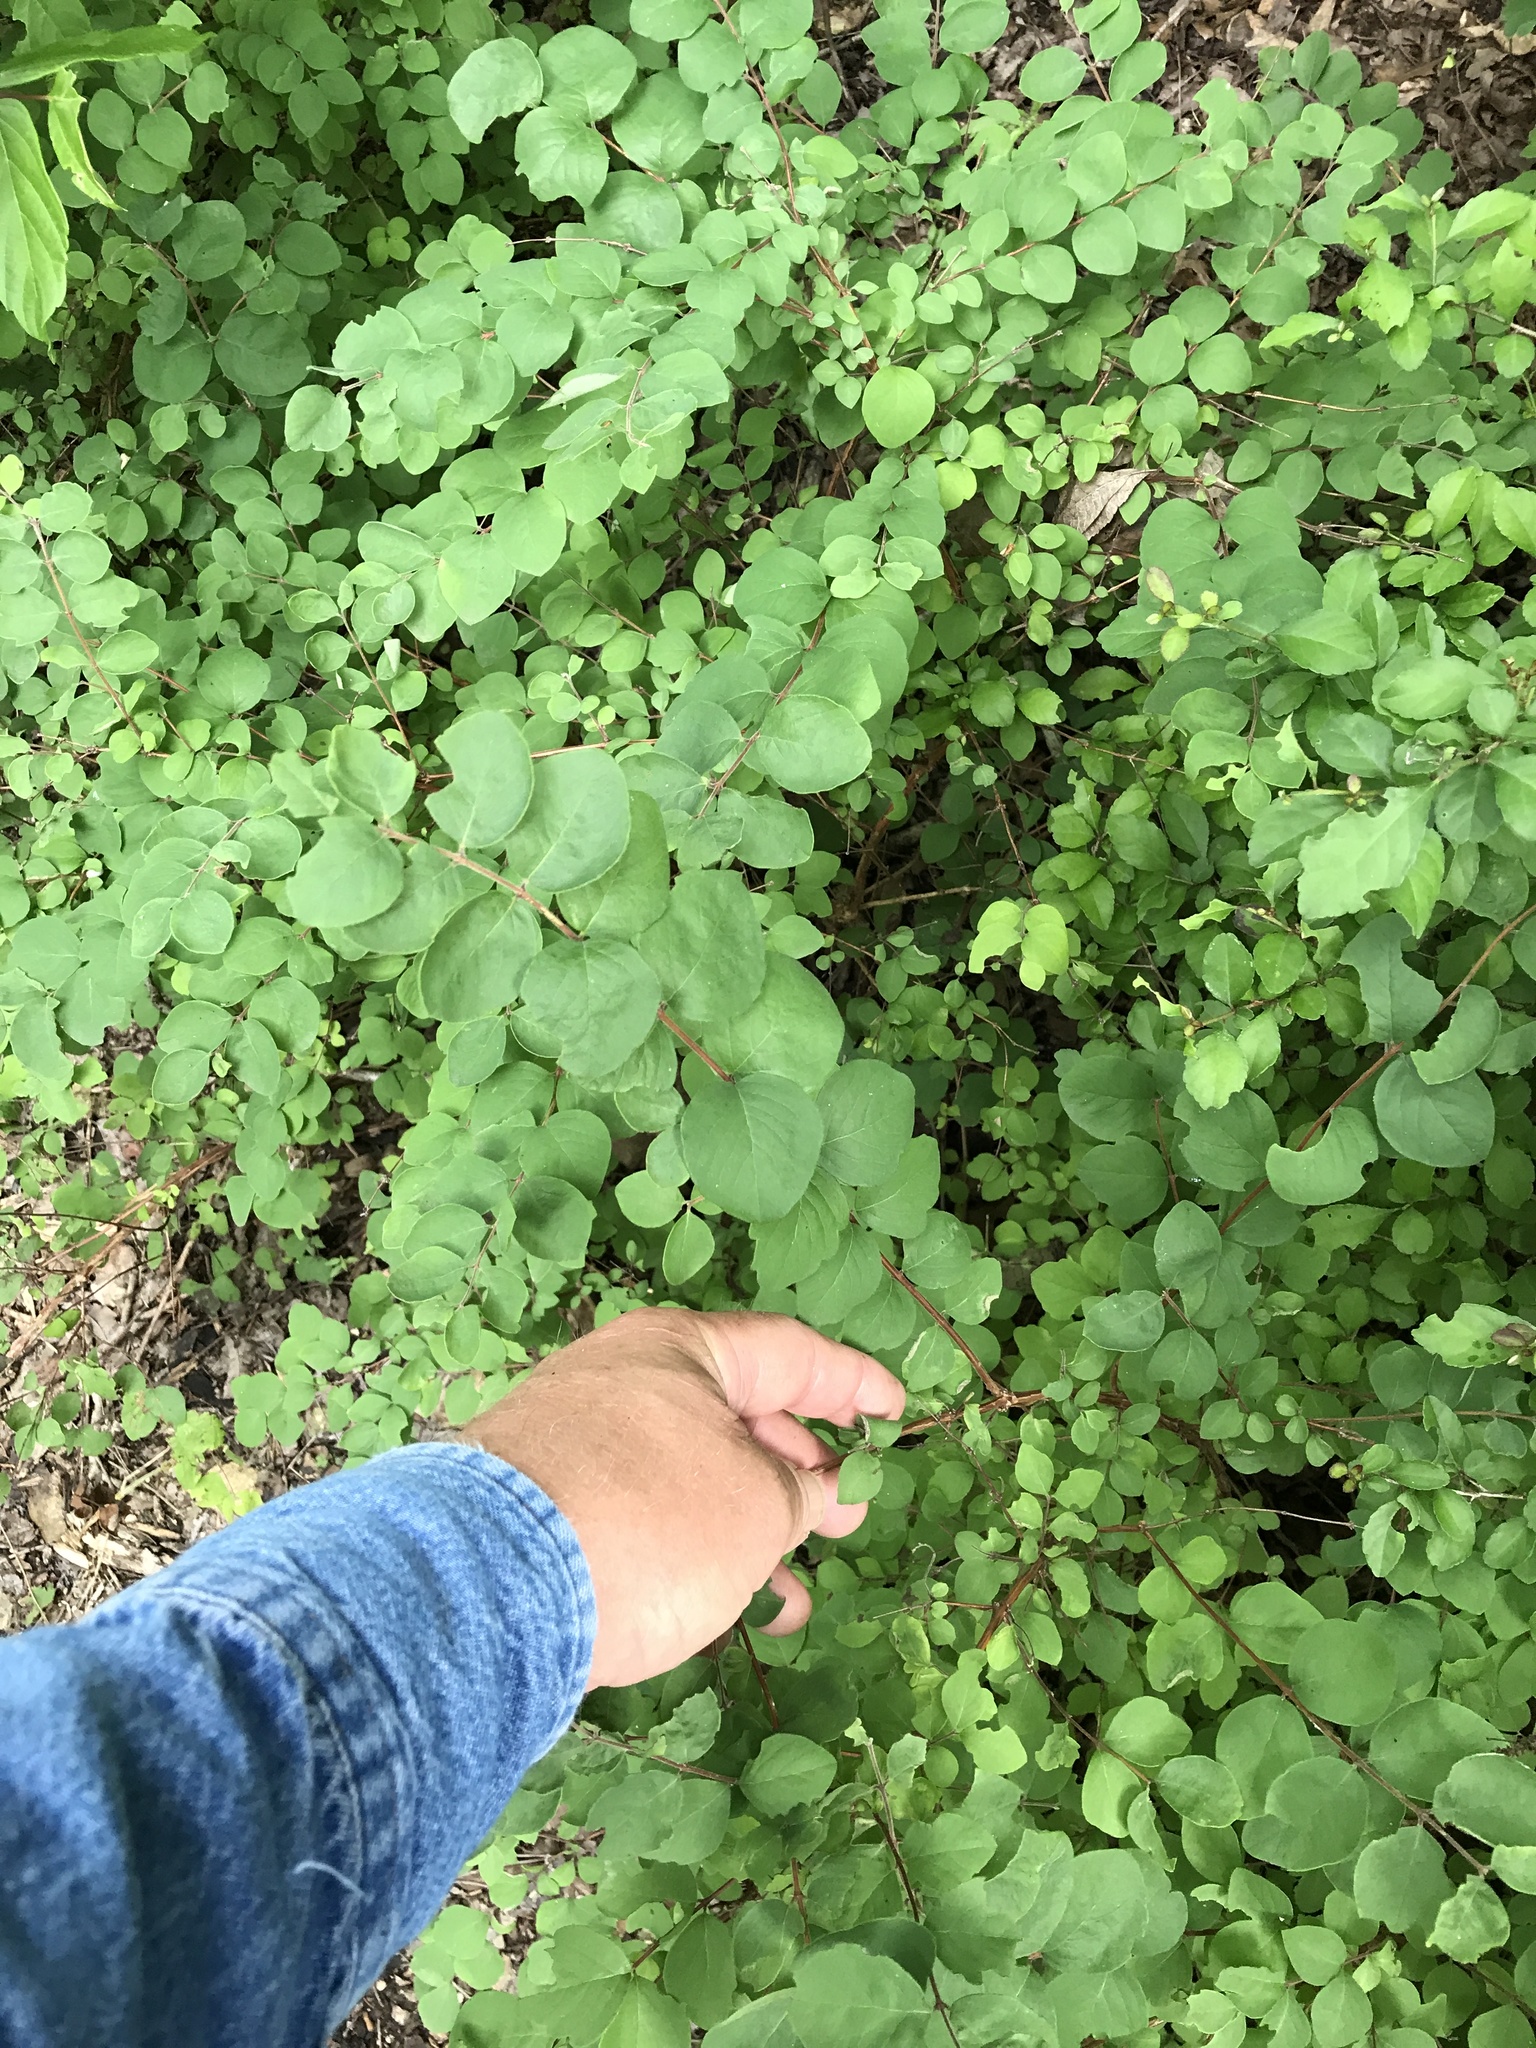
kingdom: Plantae
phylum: Tracheophyta
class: Magnoliopsida
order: Dipsacales
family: Caprifoliaceae
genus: Symphoricarpos
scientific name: Symphoricarpos orbiculatus
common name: Coralberry
